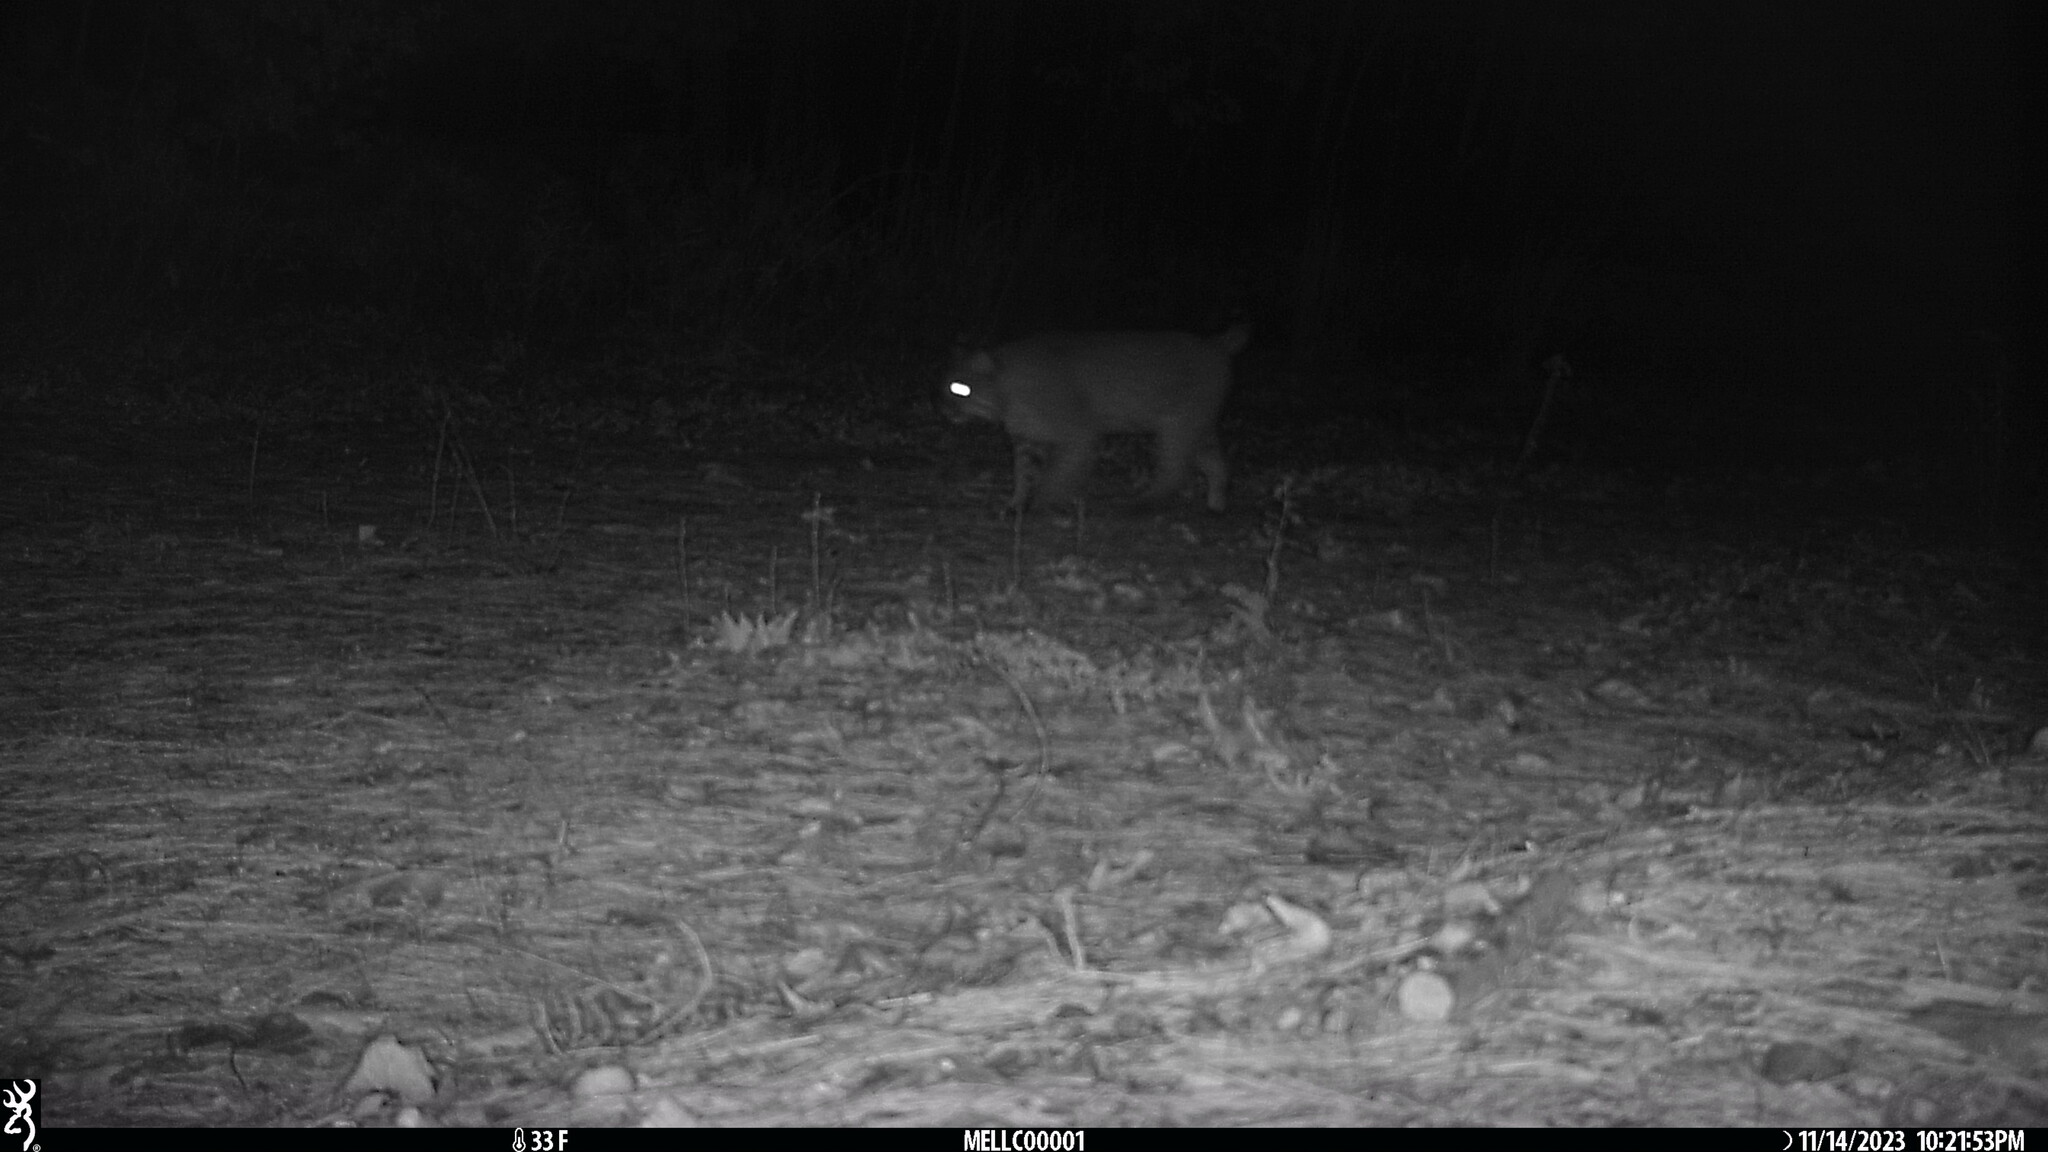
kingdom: Animalia
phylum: Chordata
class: Mammalia
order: Carnivora
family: Felidae
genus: Lynx
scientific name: Lynx rufus
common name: Bobcat
